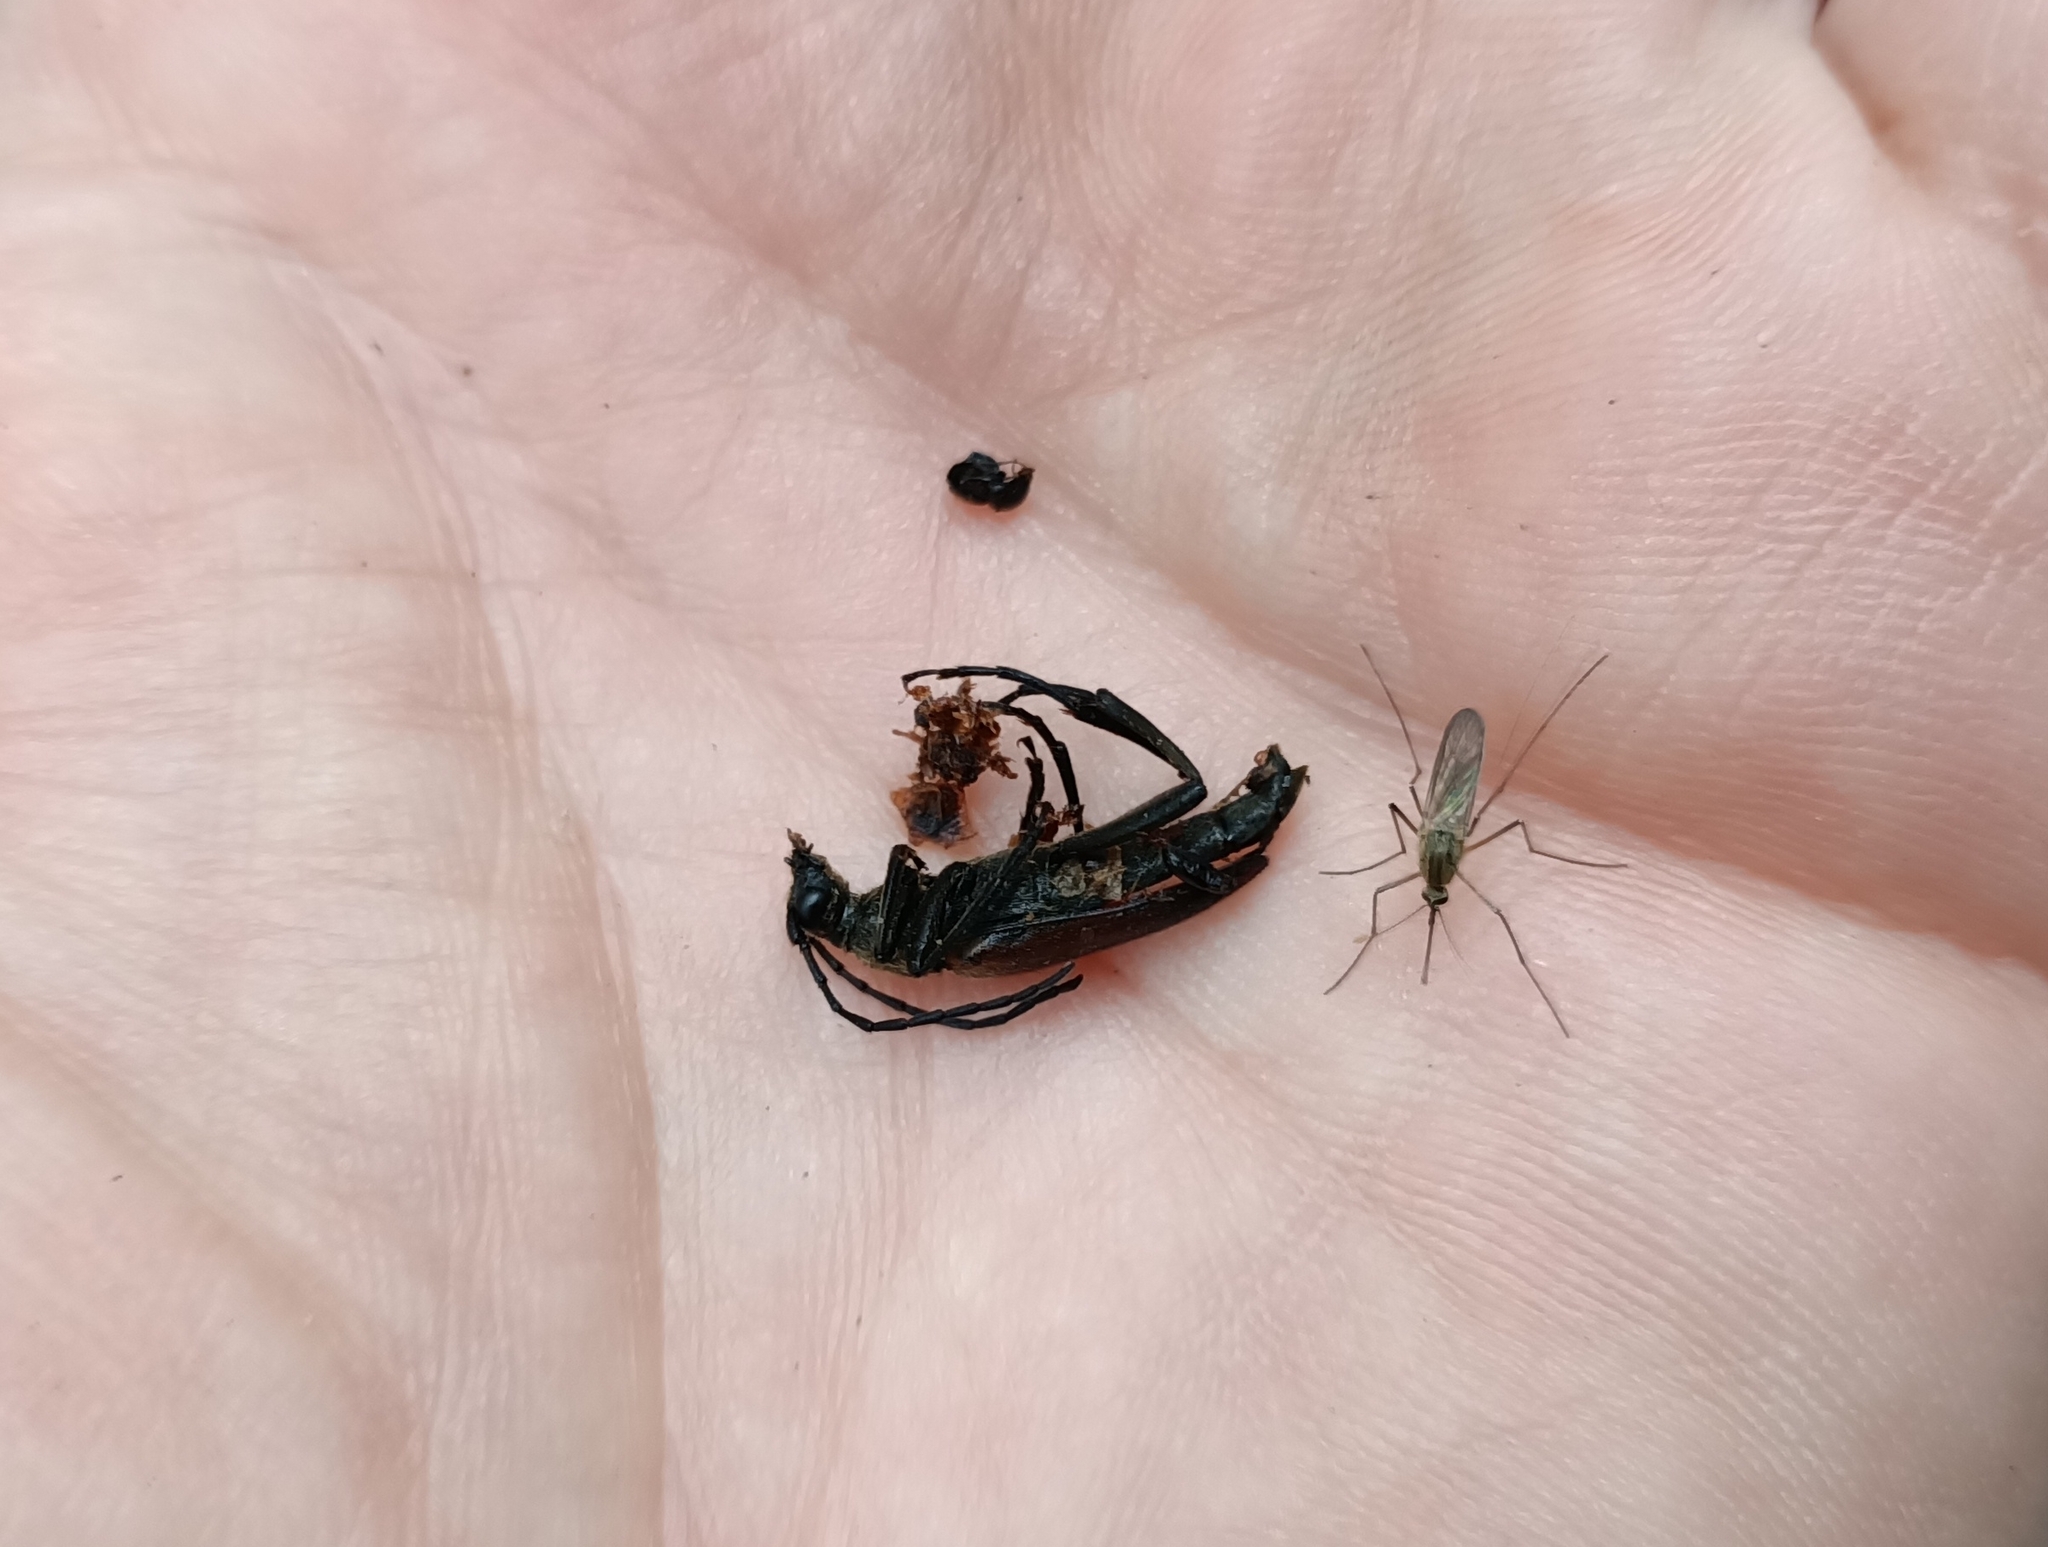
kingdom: Animalia
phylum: Arthropoda
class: Insecta
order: Coleoptera
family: Cerambycidae
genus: Lepturalia
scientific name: Lepturalia nigripes
